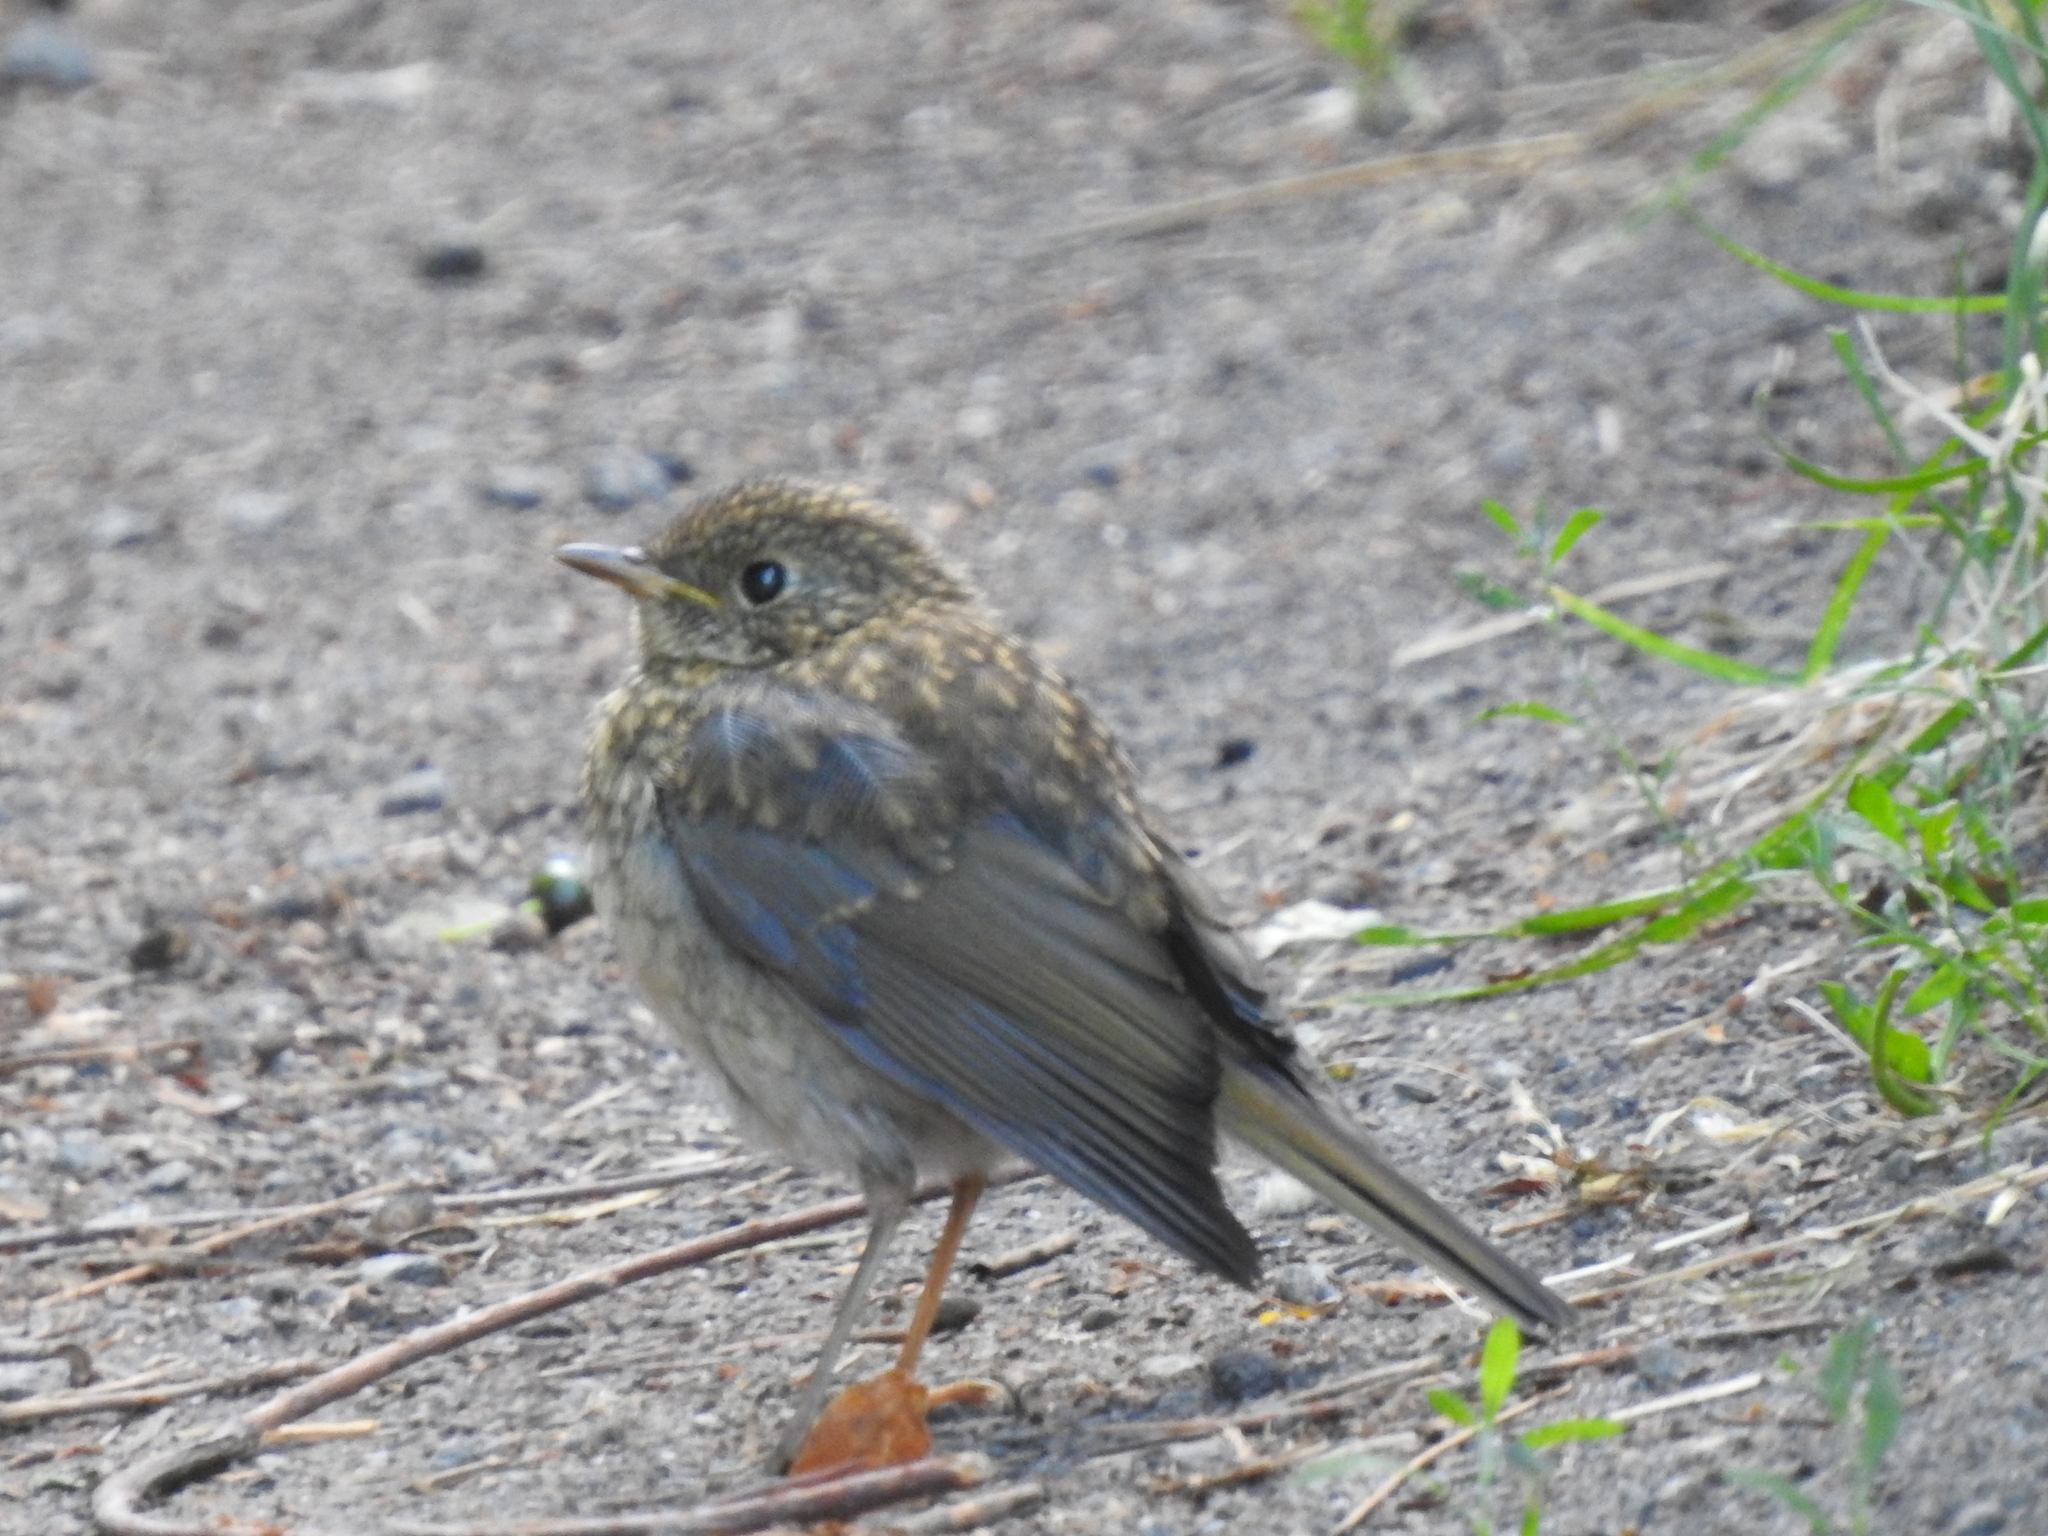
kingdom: Animalia
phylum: Chordata
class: Aves
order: Passeriformes
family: Muscicapidae
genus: Erithacus
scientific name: Erithacus rubecula
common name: European robin
